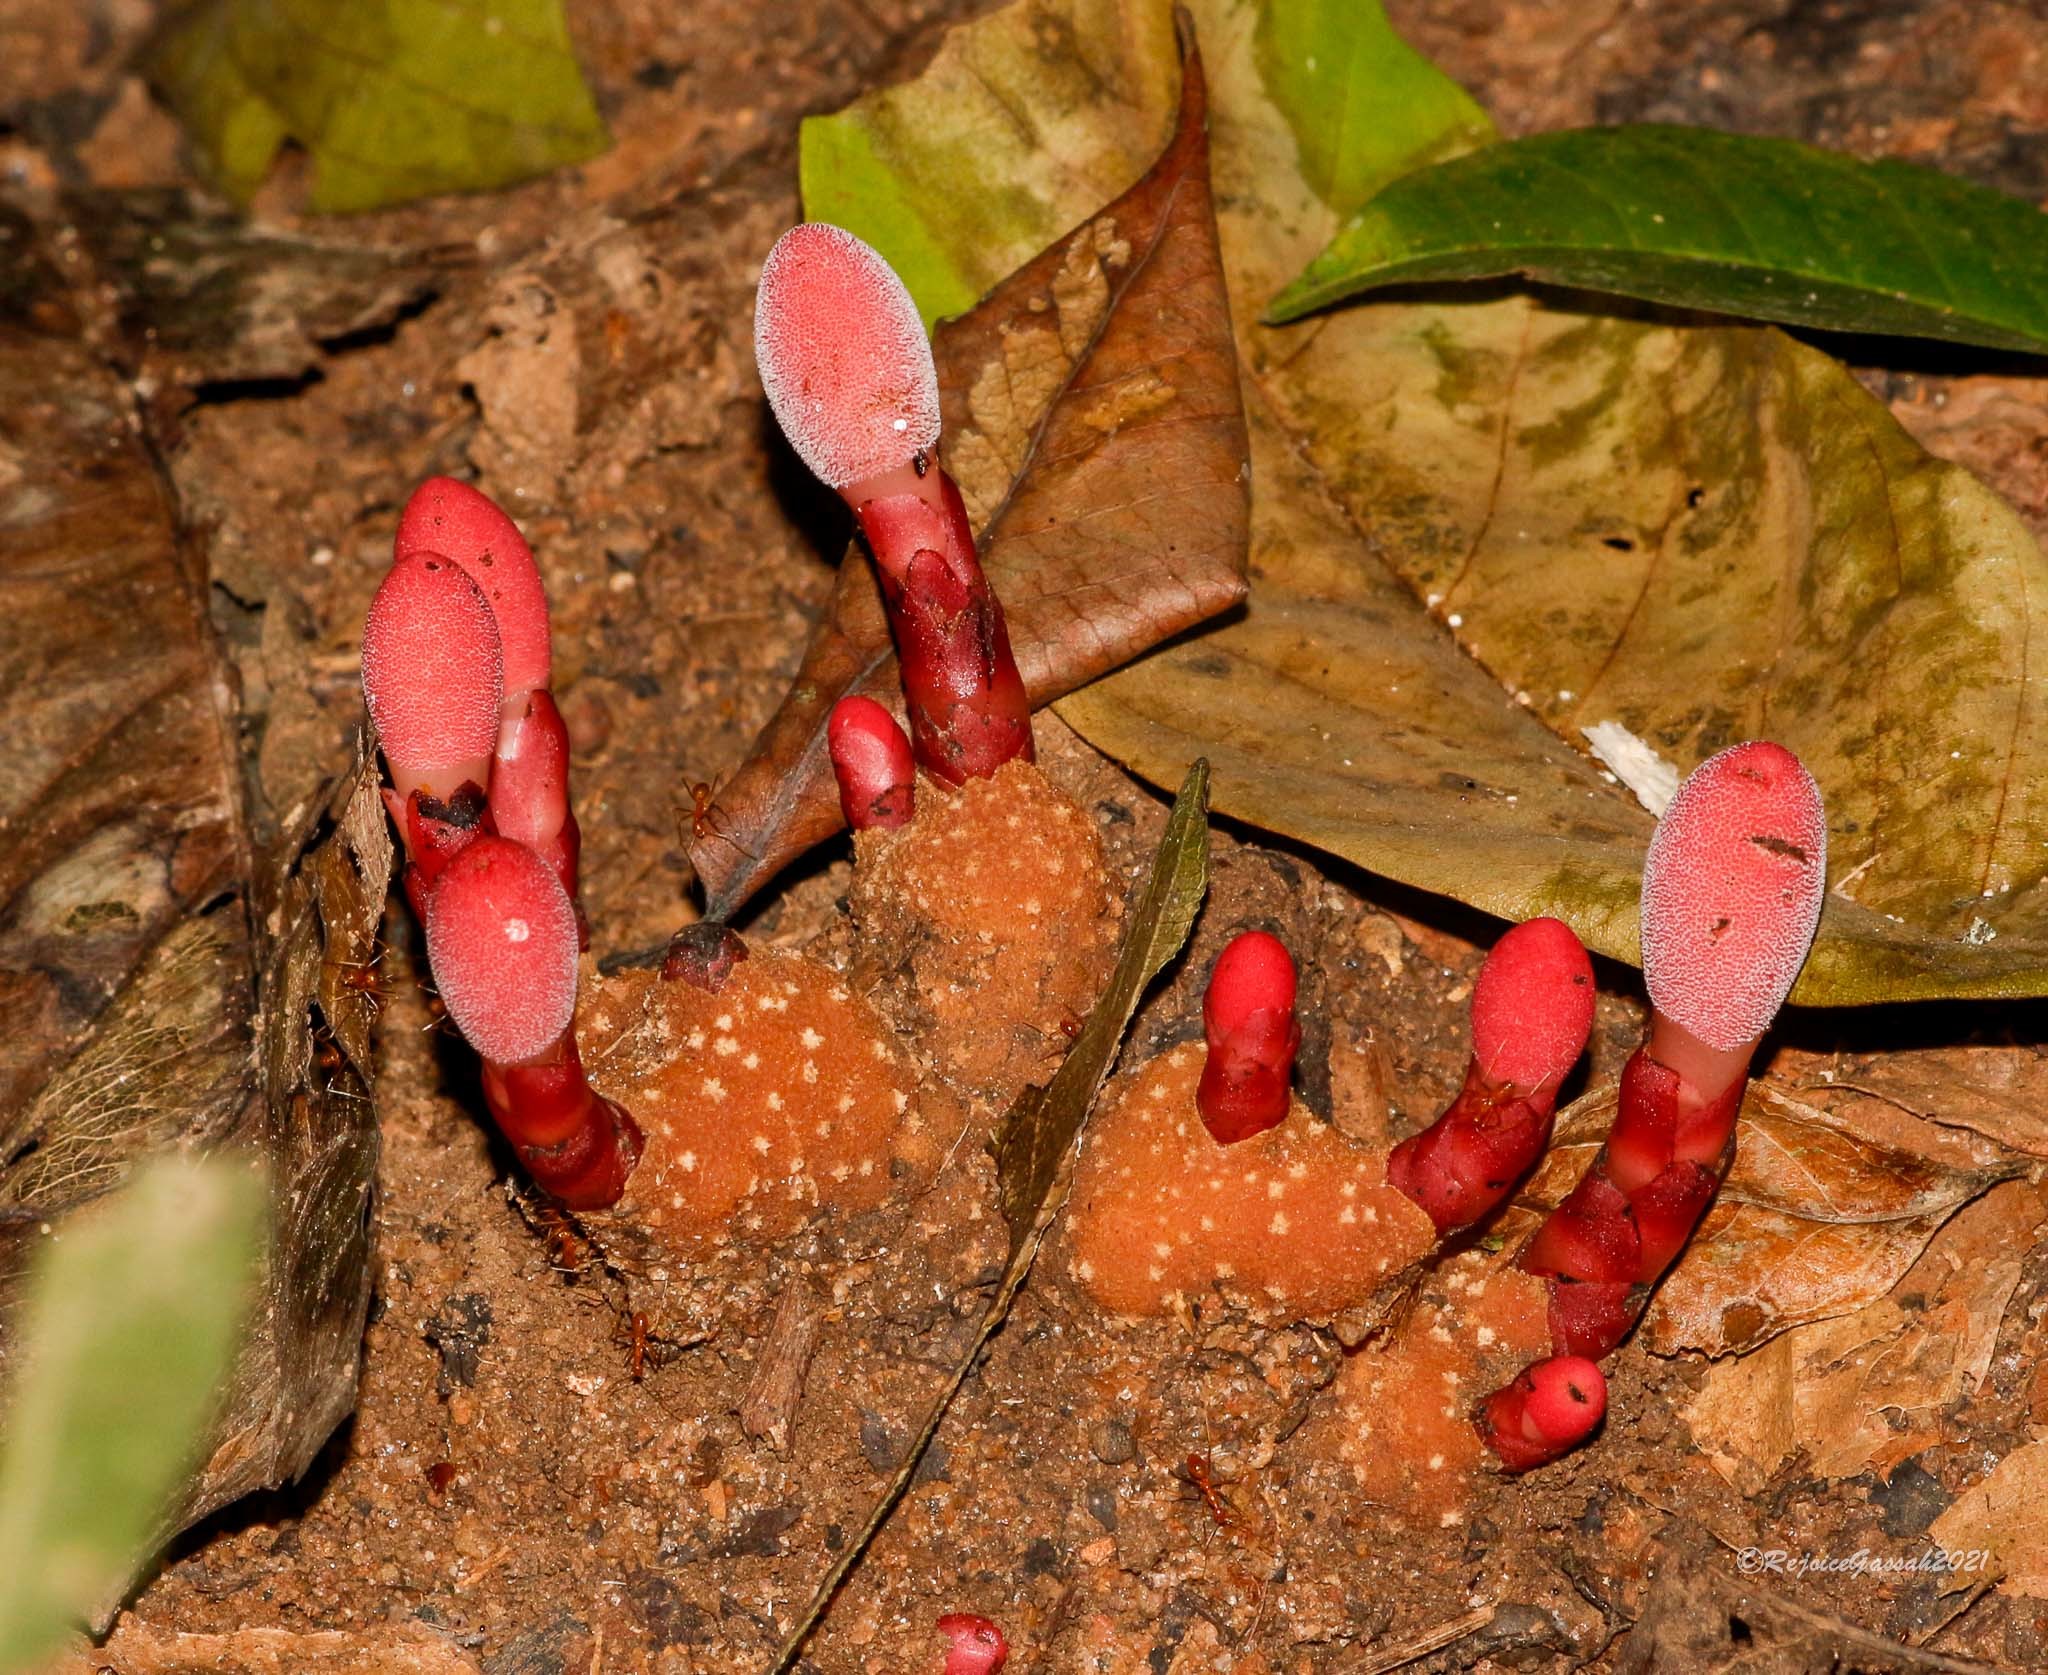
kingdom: Plantae
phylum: Tracheophyta
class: Magnoliopsida
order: Santalales
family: Balanophoraceae
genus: Balanophora
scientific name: Balanophora dioica
